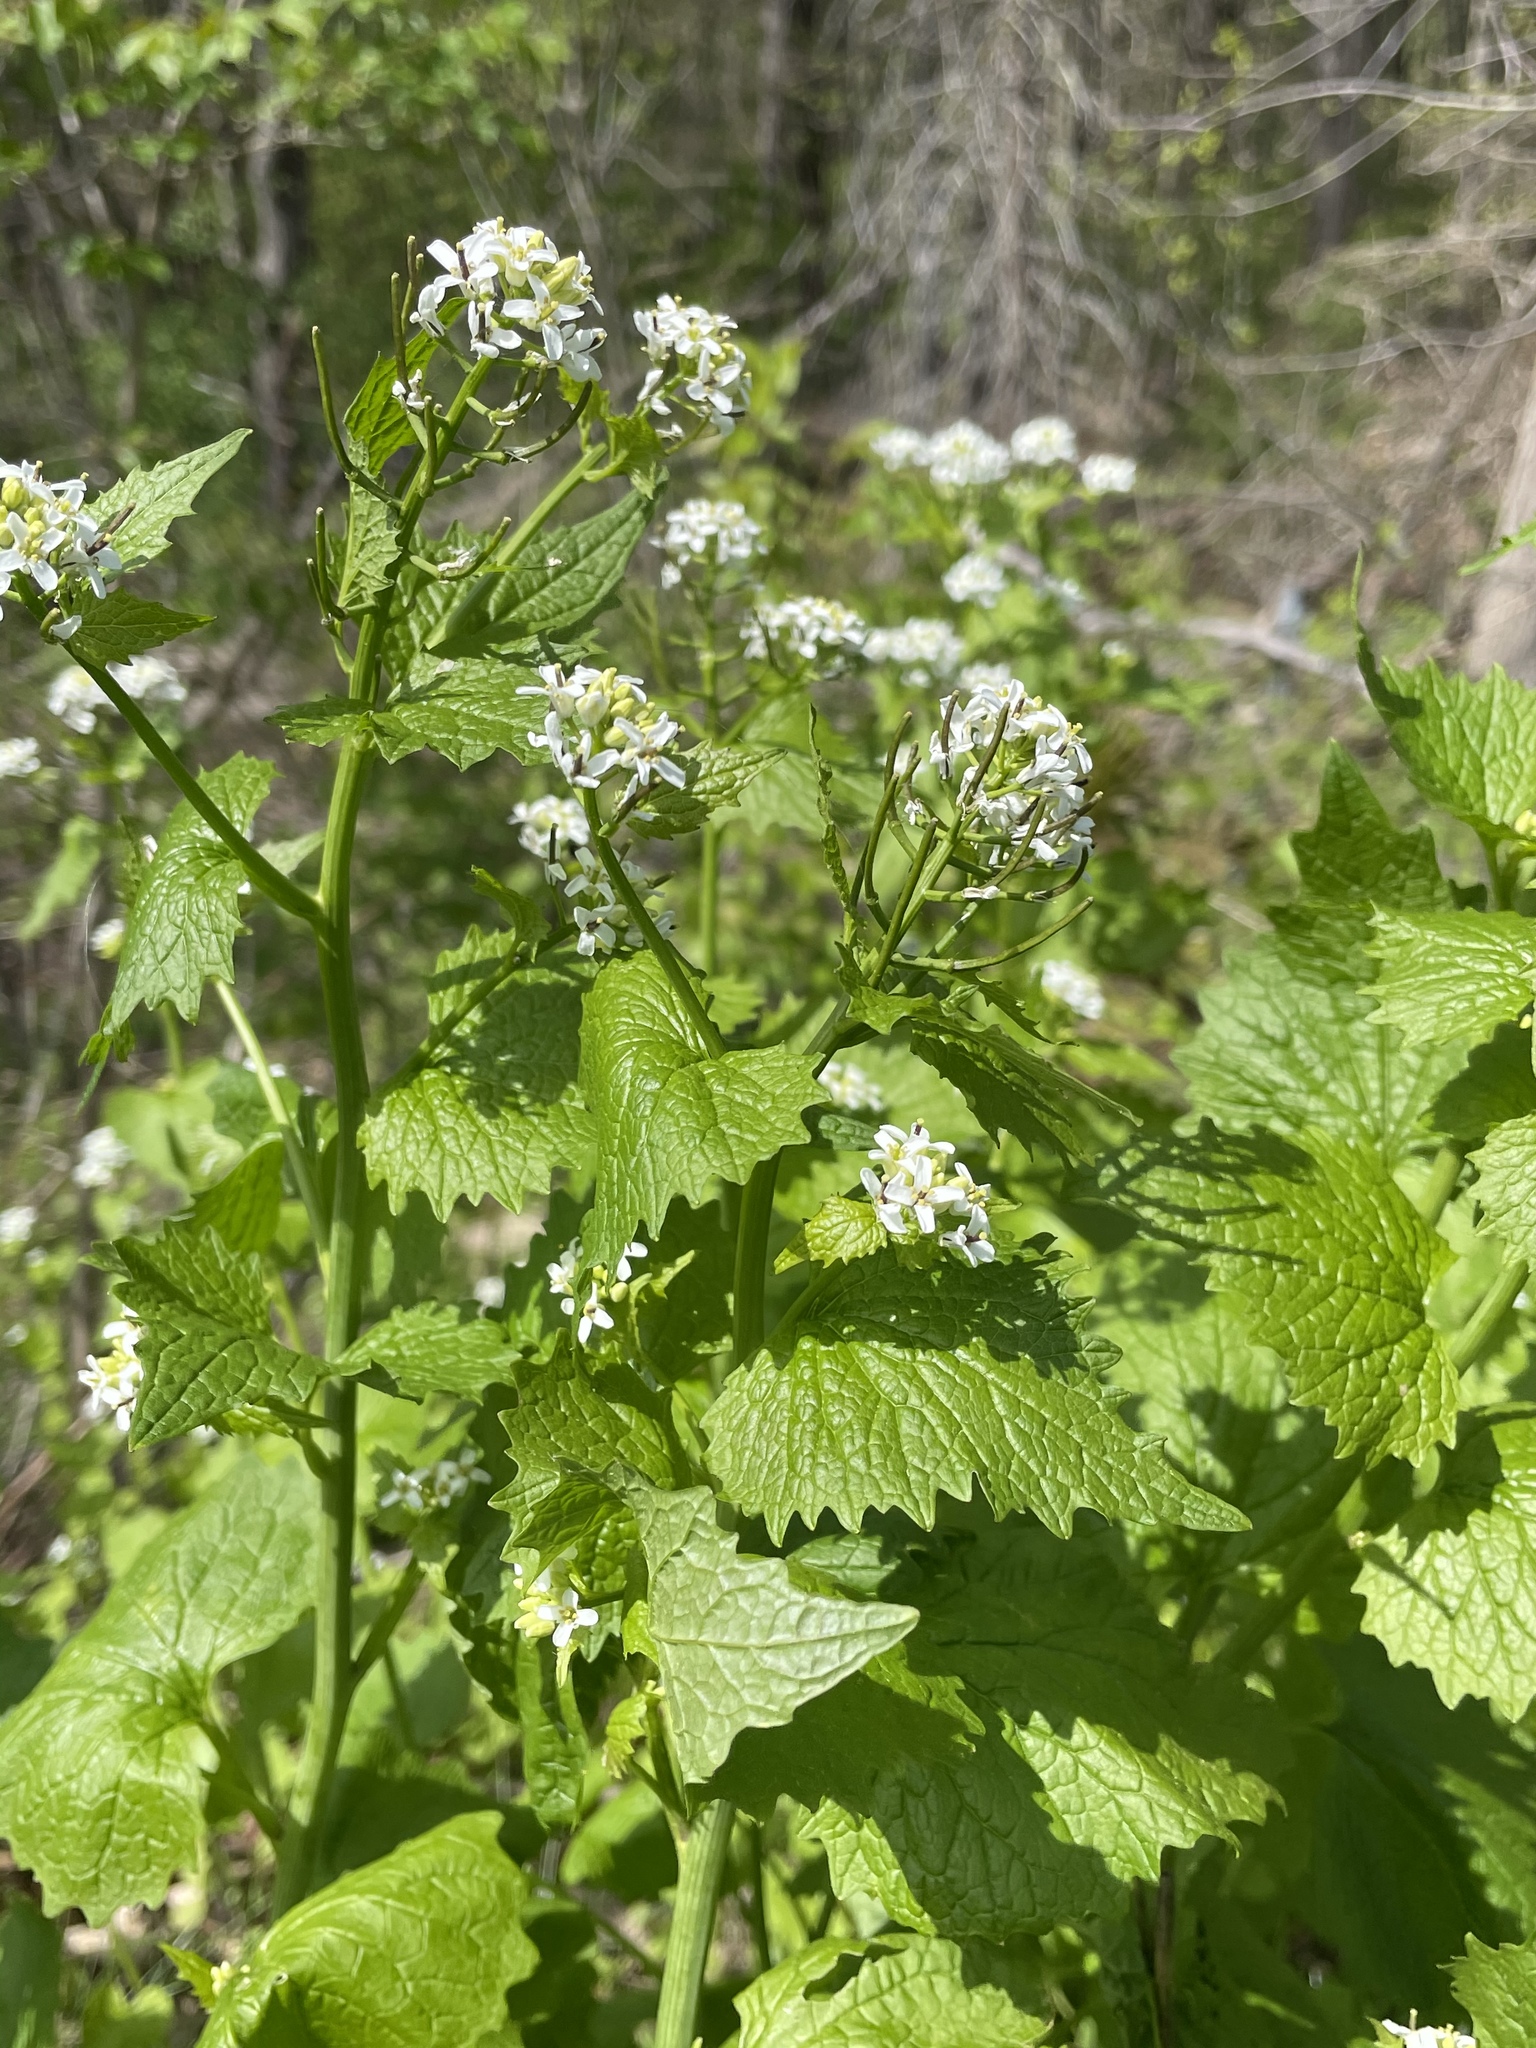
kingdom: Plantae
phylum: Tracheophyta
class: Magnoliopsida
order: Brassicales
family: Brassicaceae
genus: Alliaria
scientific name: Alliaria petiolata
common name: Garlic mustard
